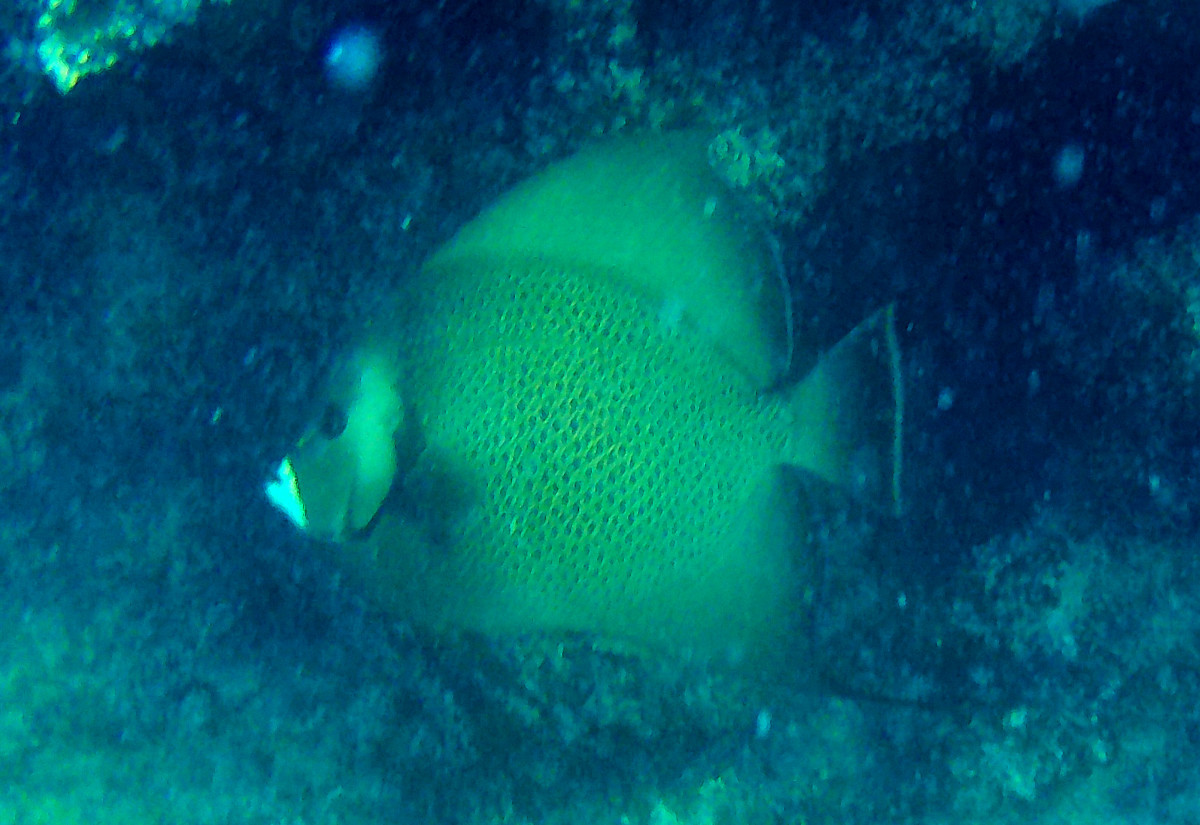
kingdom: Animalia
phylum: Chordata
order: Perciformes
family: Pomacanthidae
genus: Pomacanthus
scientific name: Pomacanthus arcuatus
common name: Gray angelfish
